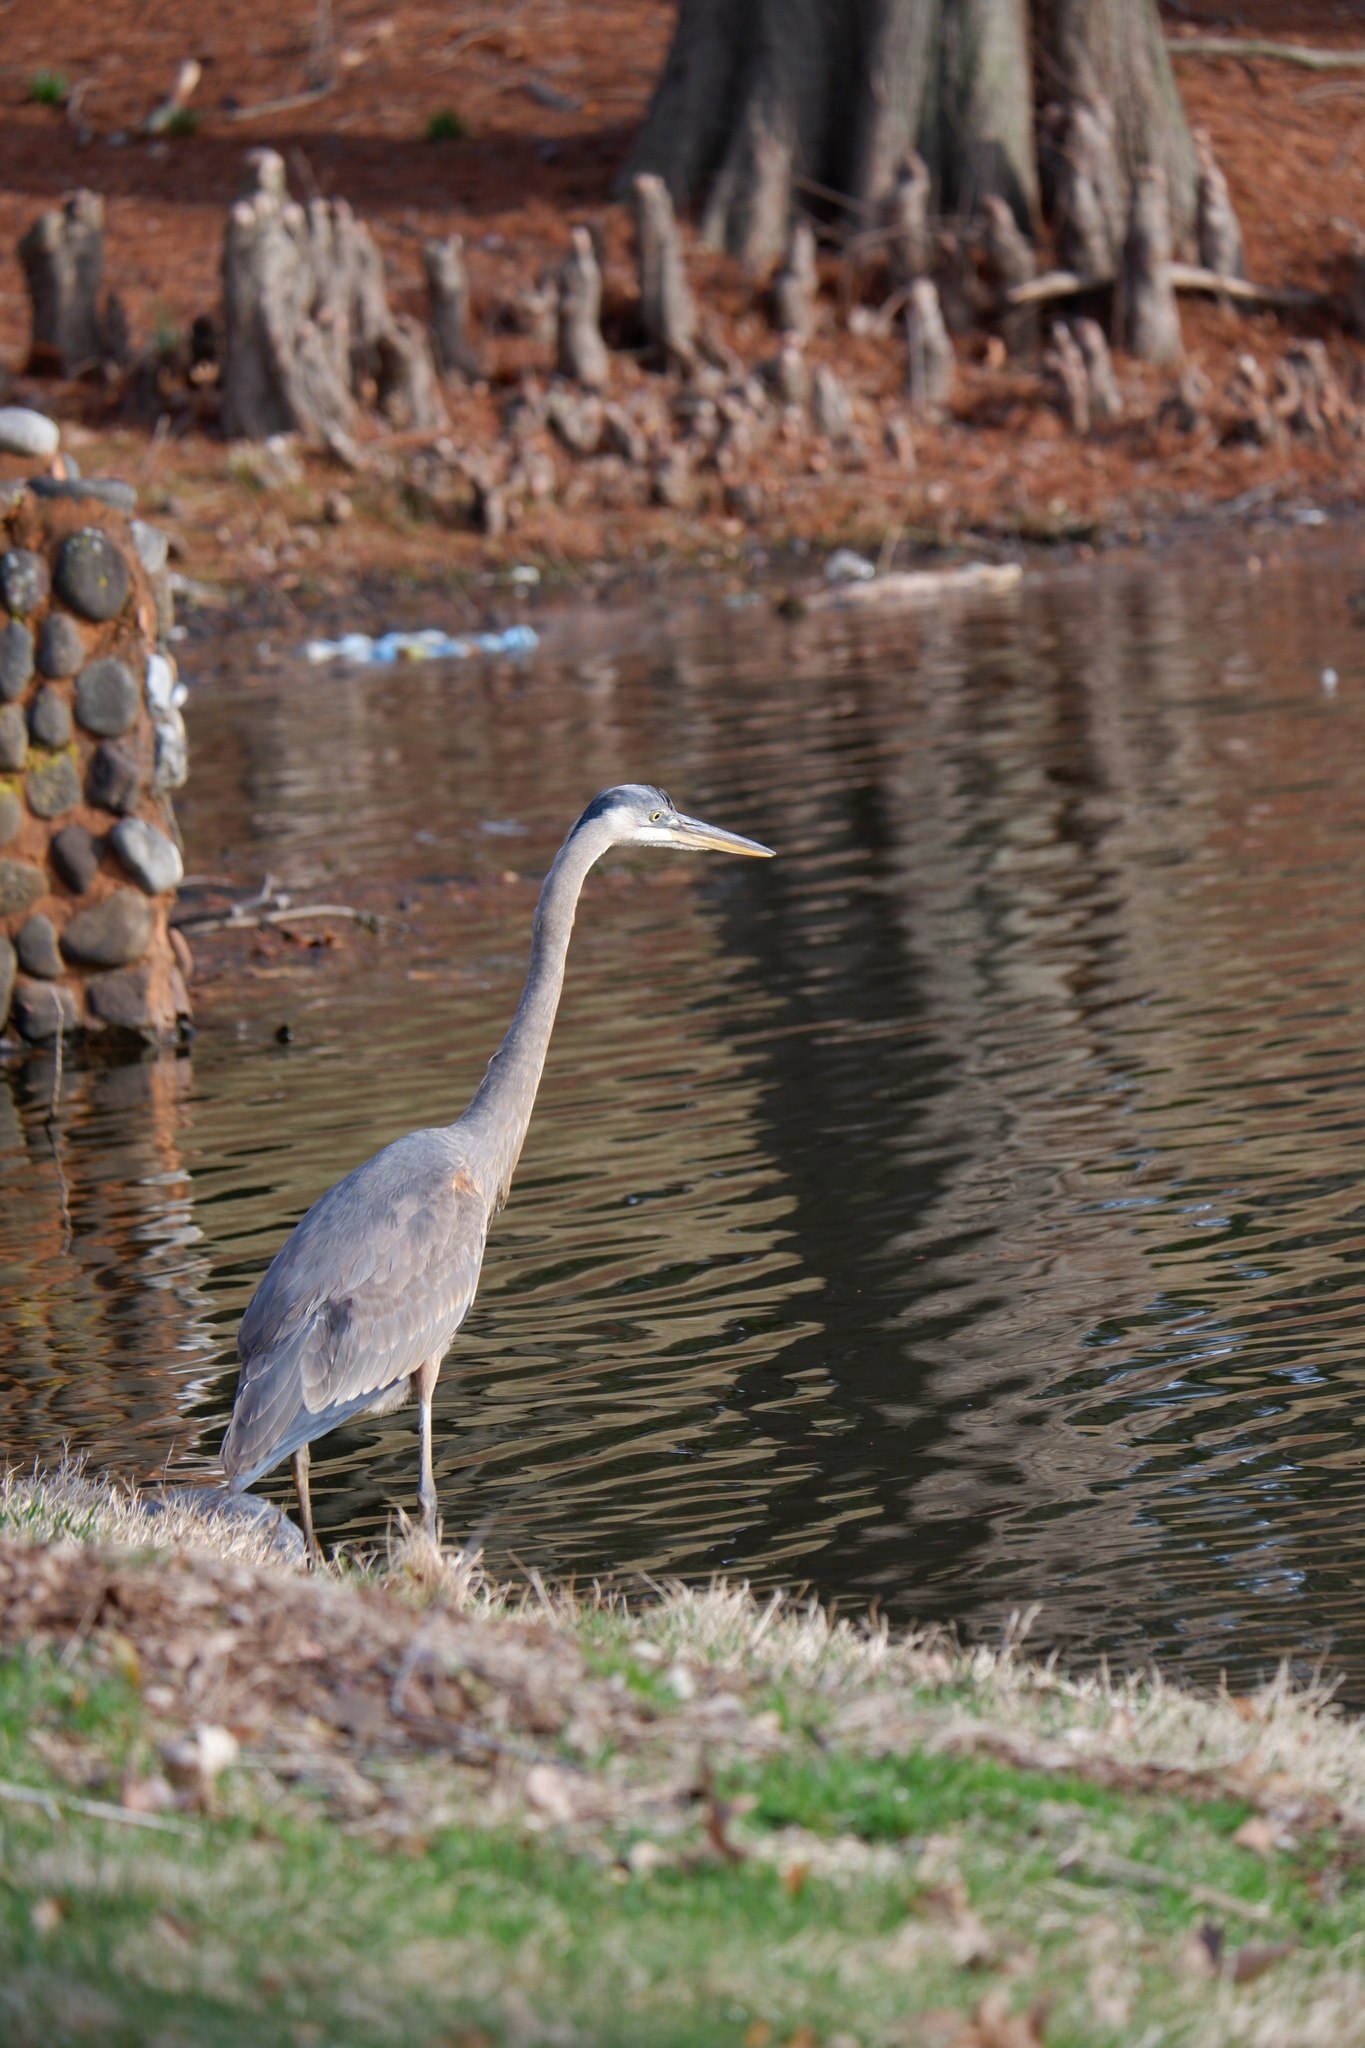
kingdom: Animalia
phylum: Chordata
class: Aves
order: Pelecaniformes
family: Ardeidae
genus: Ardea
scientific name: Ardea herodias
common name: Great blue heron
